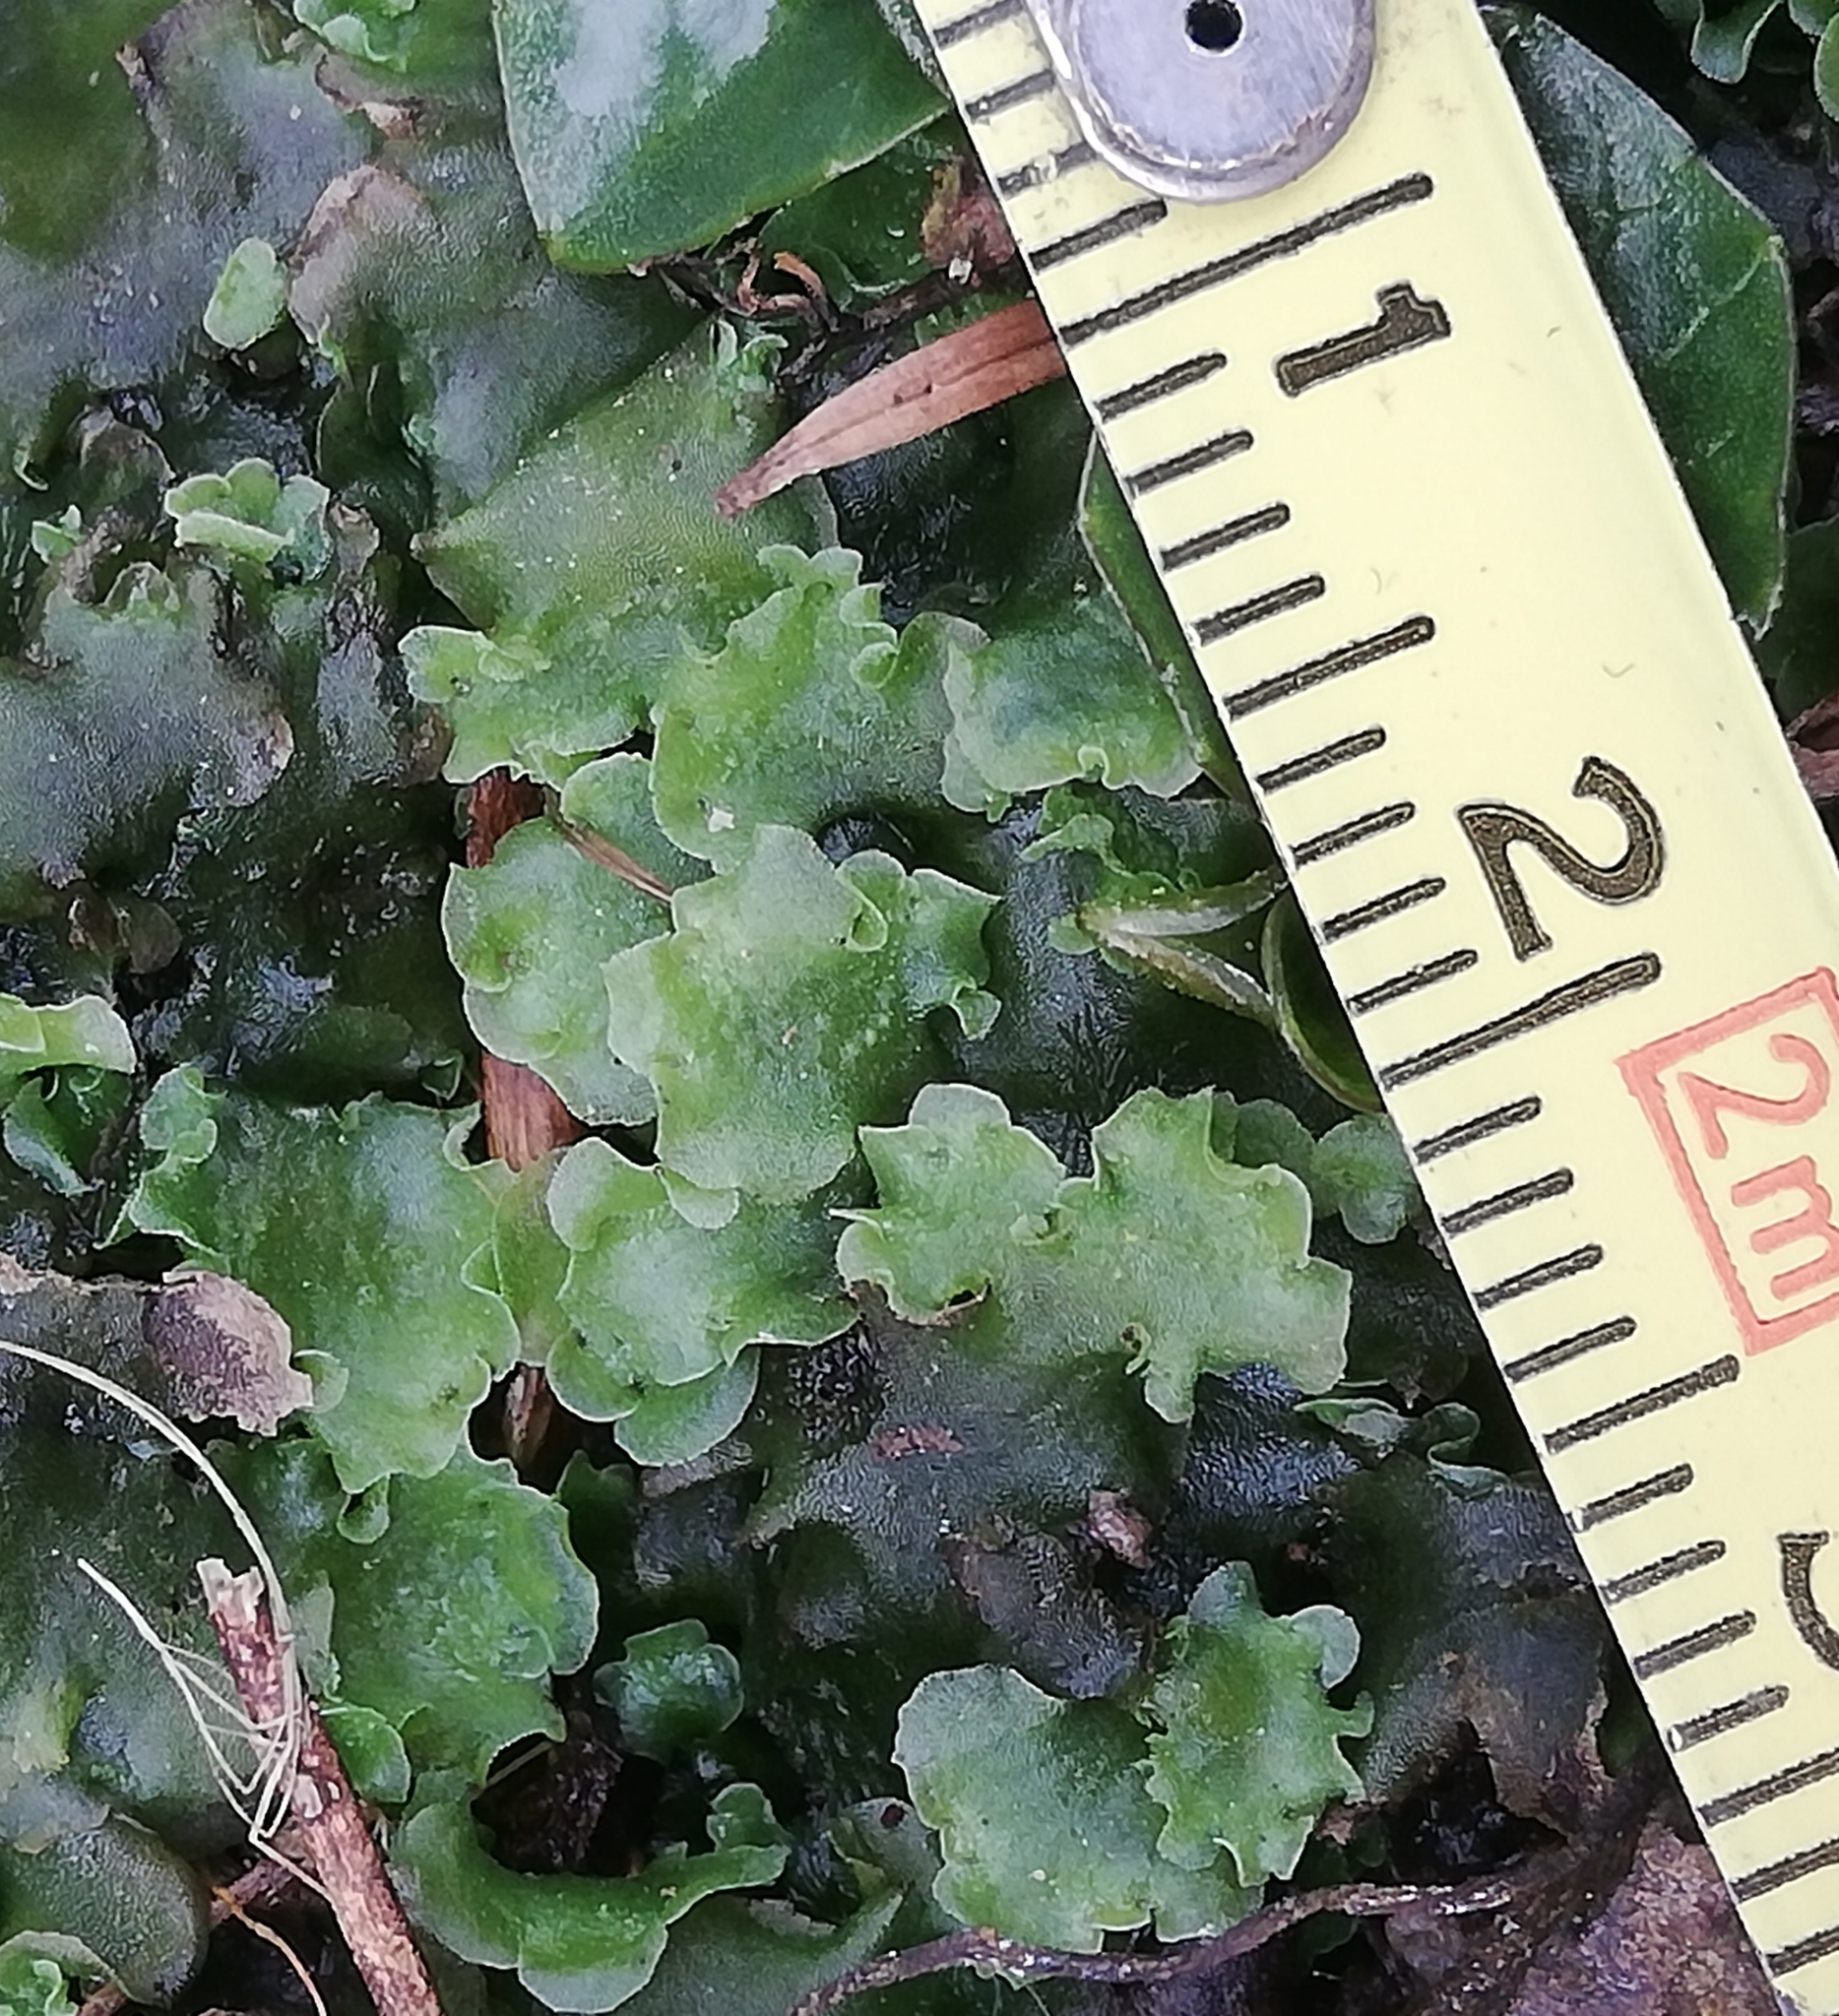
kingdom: Plantae
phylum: Marchantiophyta
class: Jungermanniopsida
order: Pelliales
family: Pelliaceae
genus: Pellia
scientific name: Pellia epiphylla
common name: Common pellia
